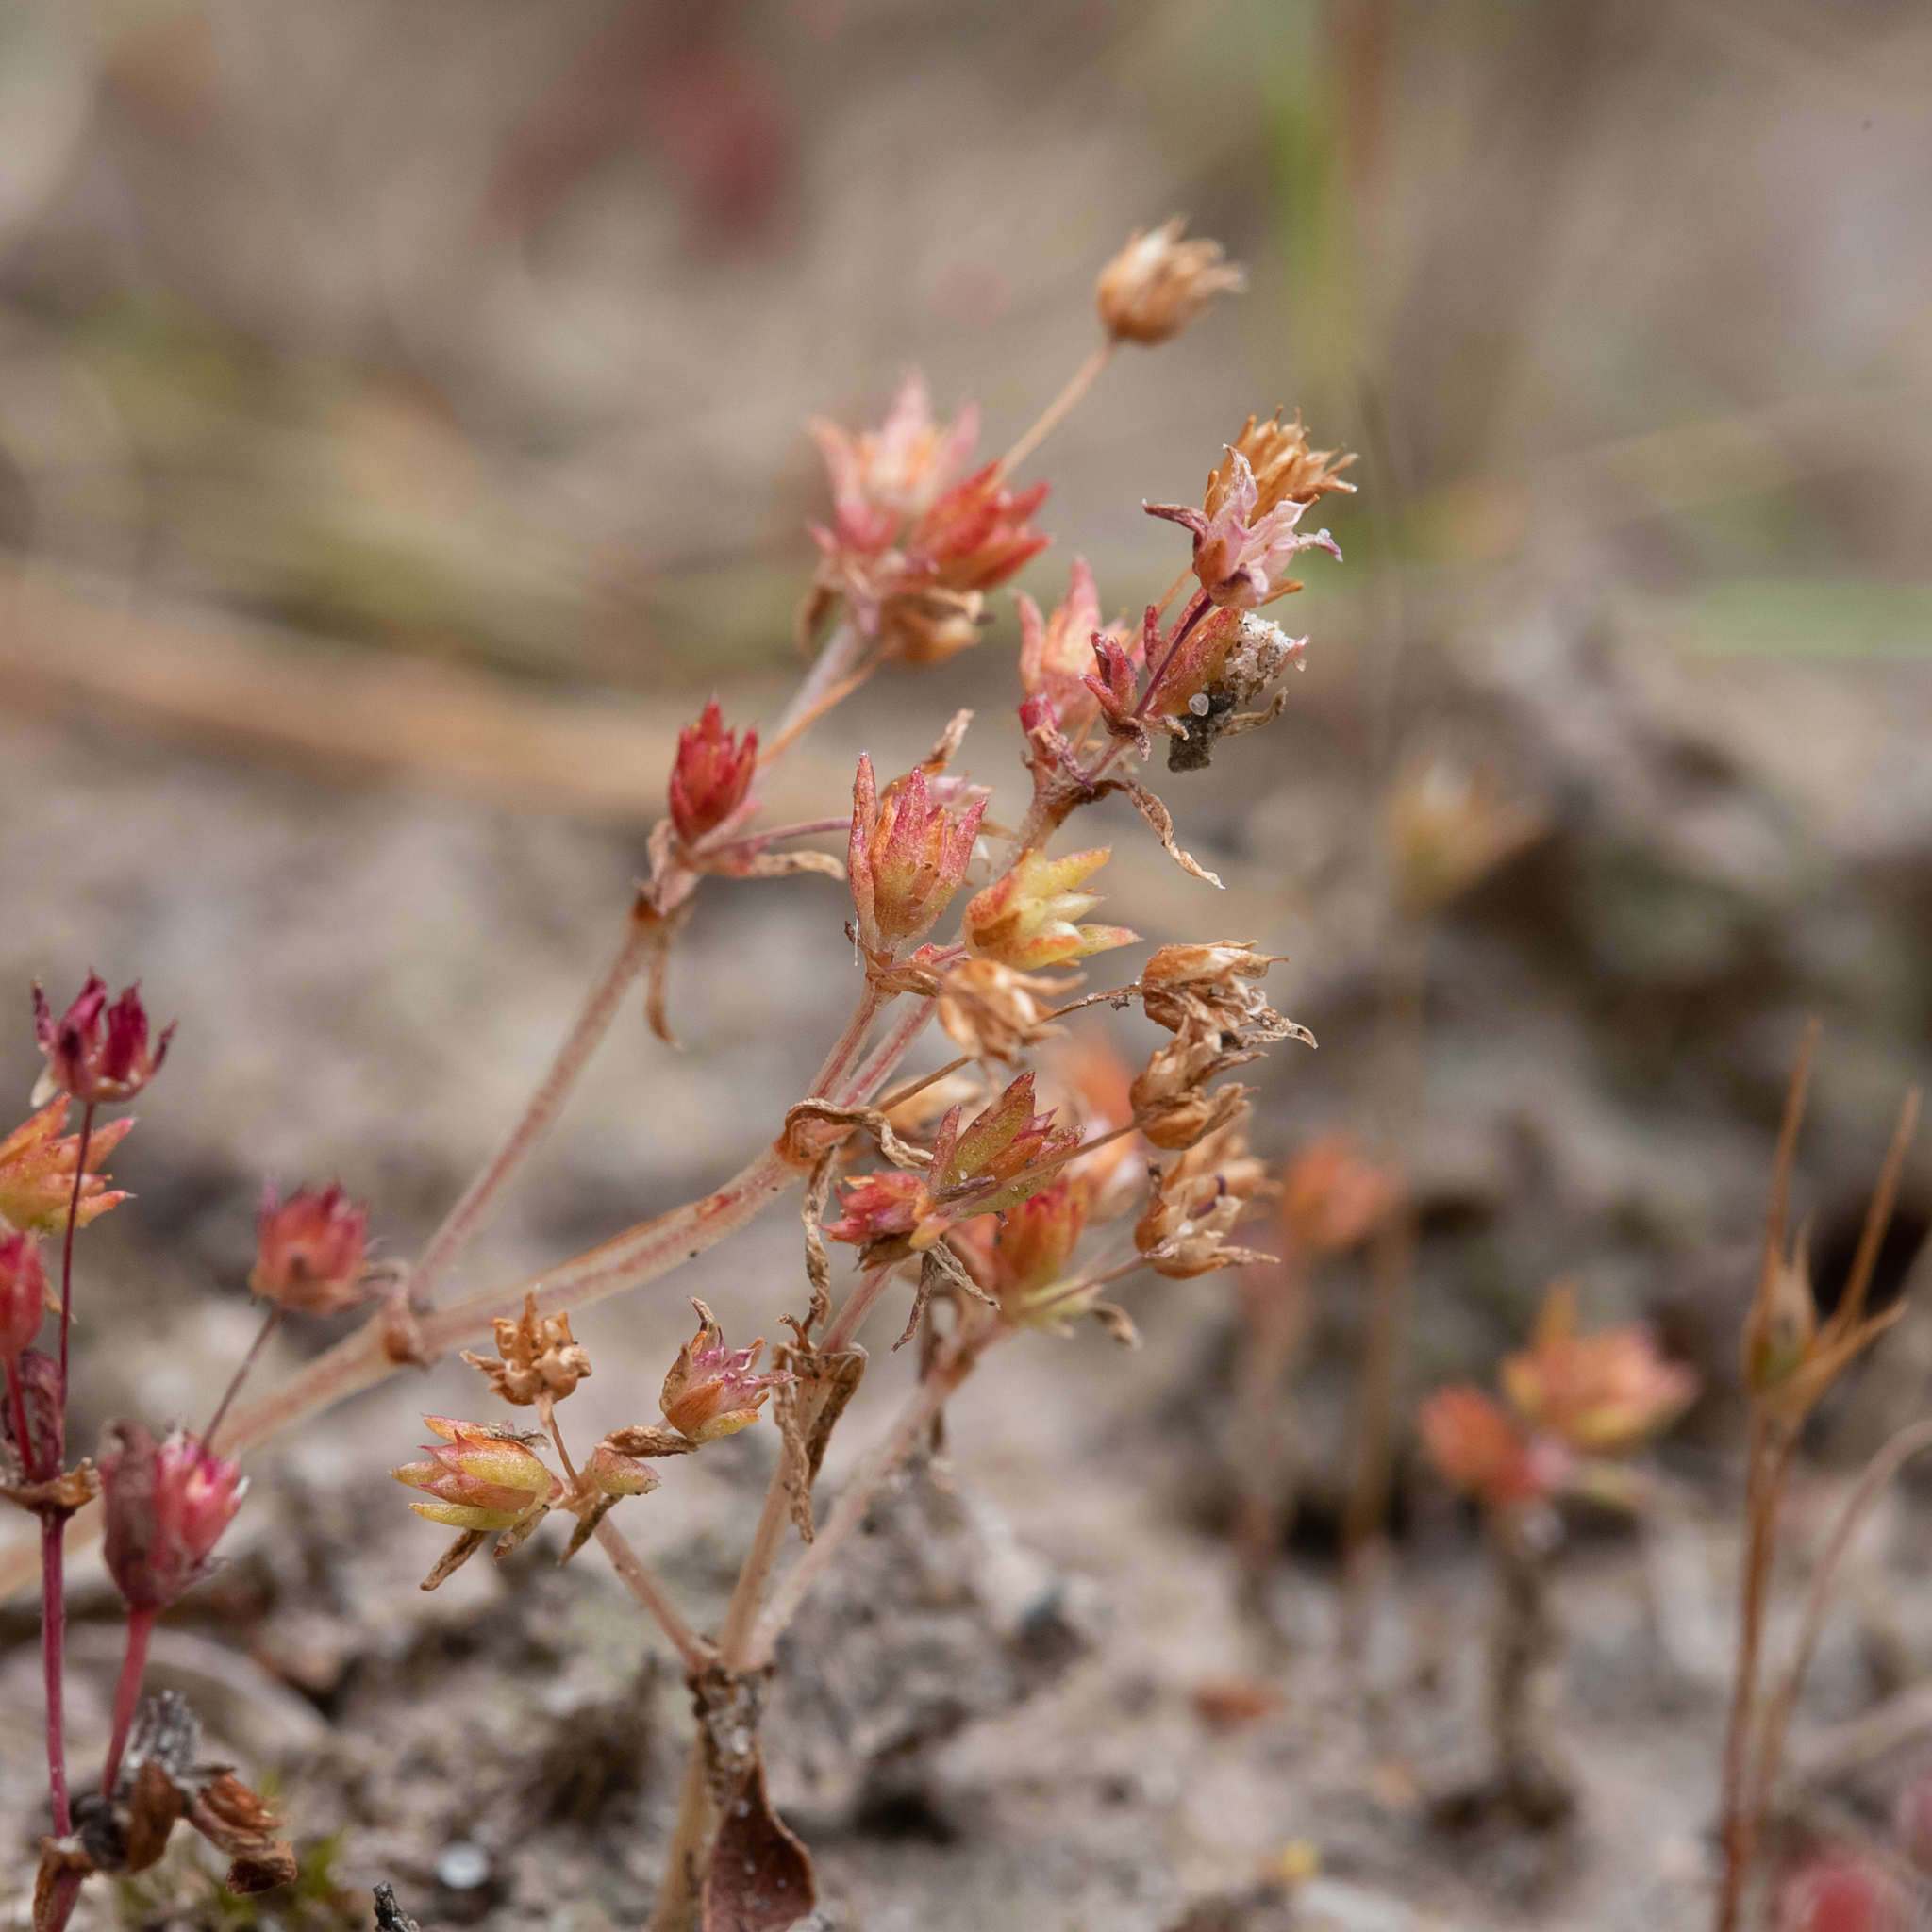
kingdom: Plantae
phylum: Tracheophyta
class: Magnoliopsida
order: Saxifragales
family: Crassulaceae
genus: Crassula
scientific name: Crassula decumbens
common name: Scilly pigmyweed
